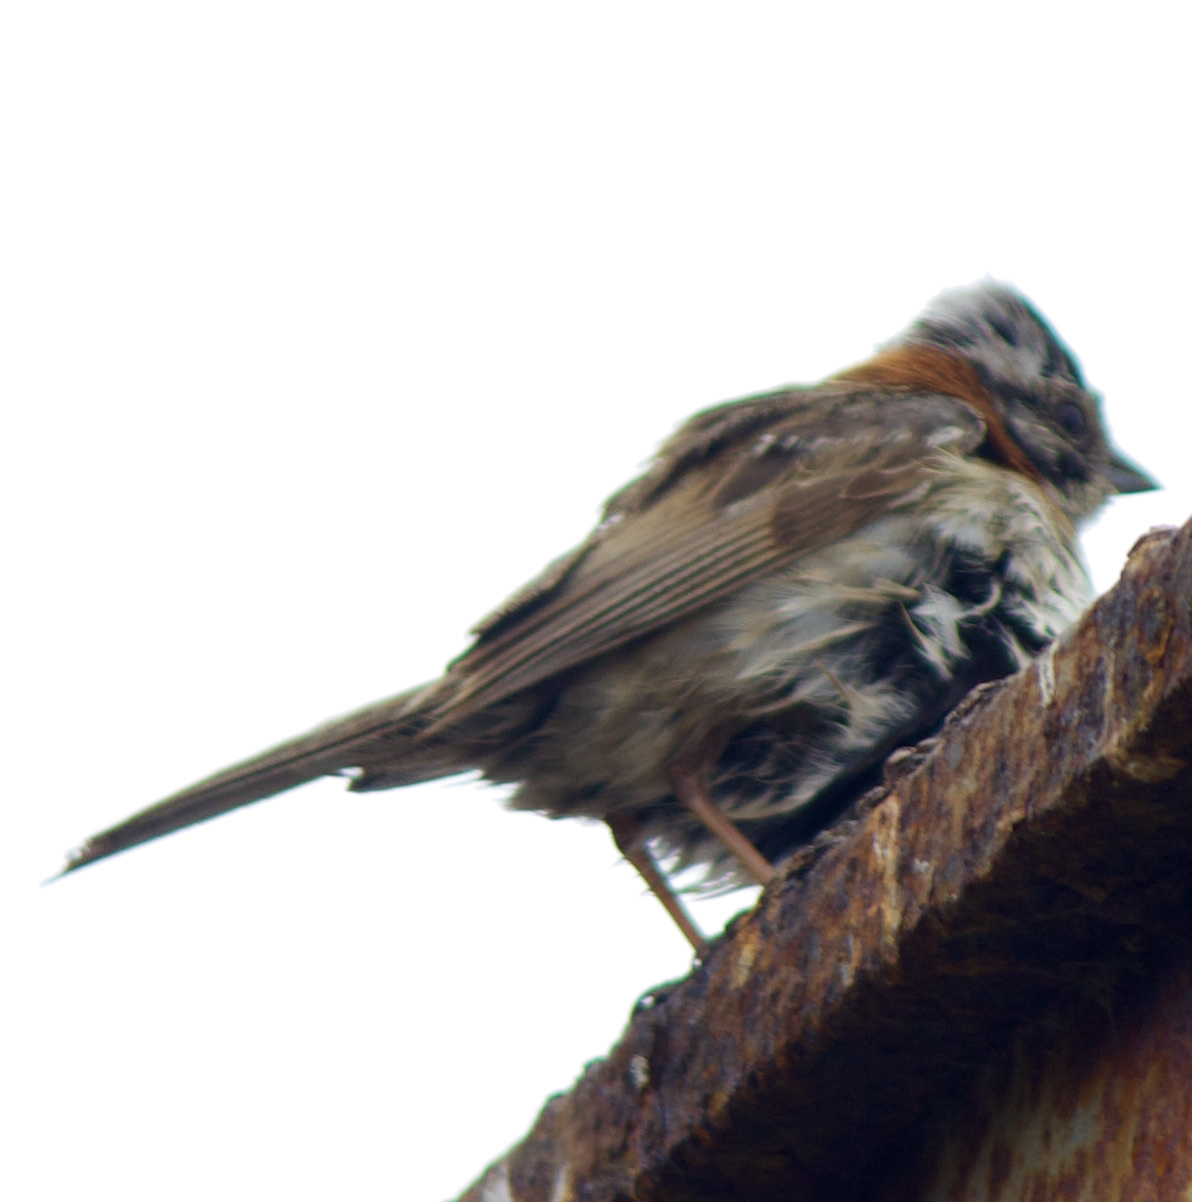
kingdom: Animalia
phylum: Chordata
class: Aves
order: Passeriformes
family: Passerellidae
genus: Zonotrichia
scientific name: Zonotrichia capensis
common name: Rufous-collared sparrow
